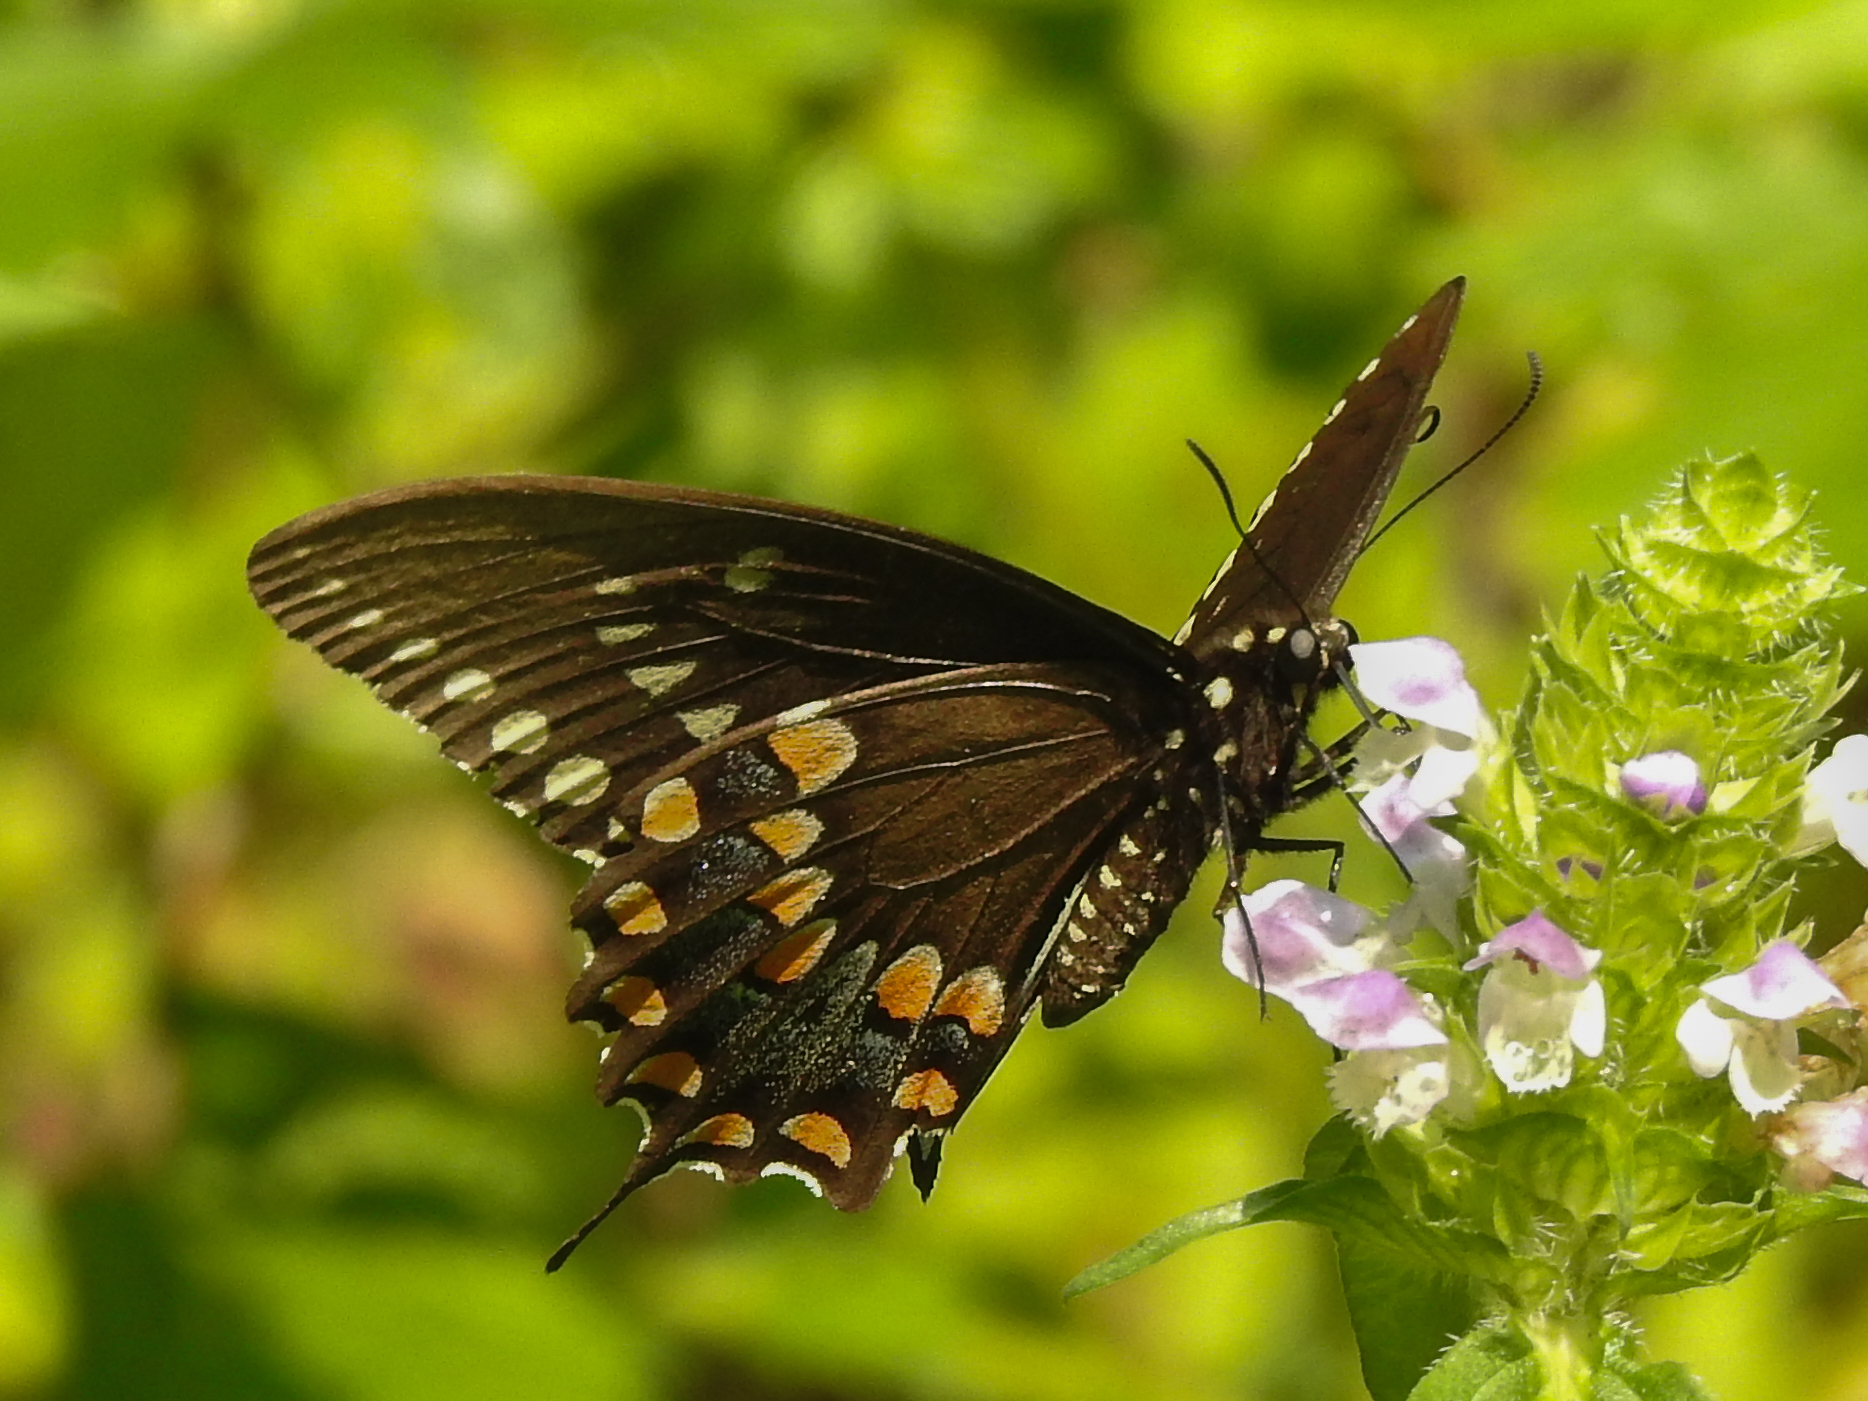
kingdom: Animalia
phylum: Arthropoda
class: Insecta
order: Lepidoptera
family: Papilionidae
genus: Papilio
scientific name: Papilio troilus
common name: Spicebush swallowtail
